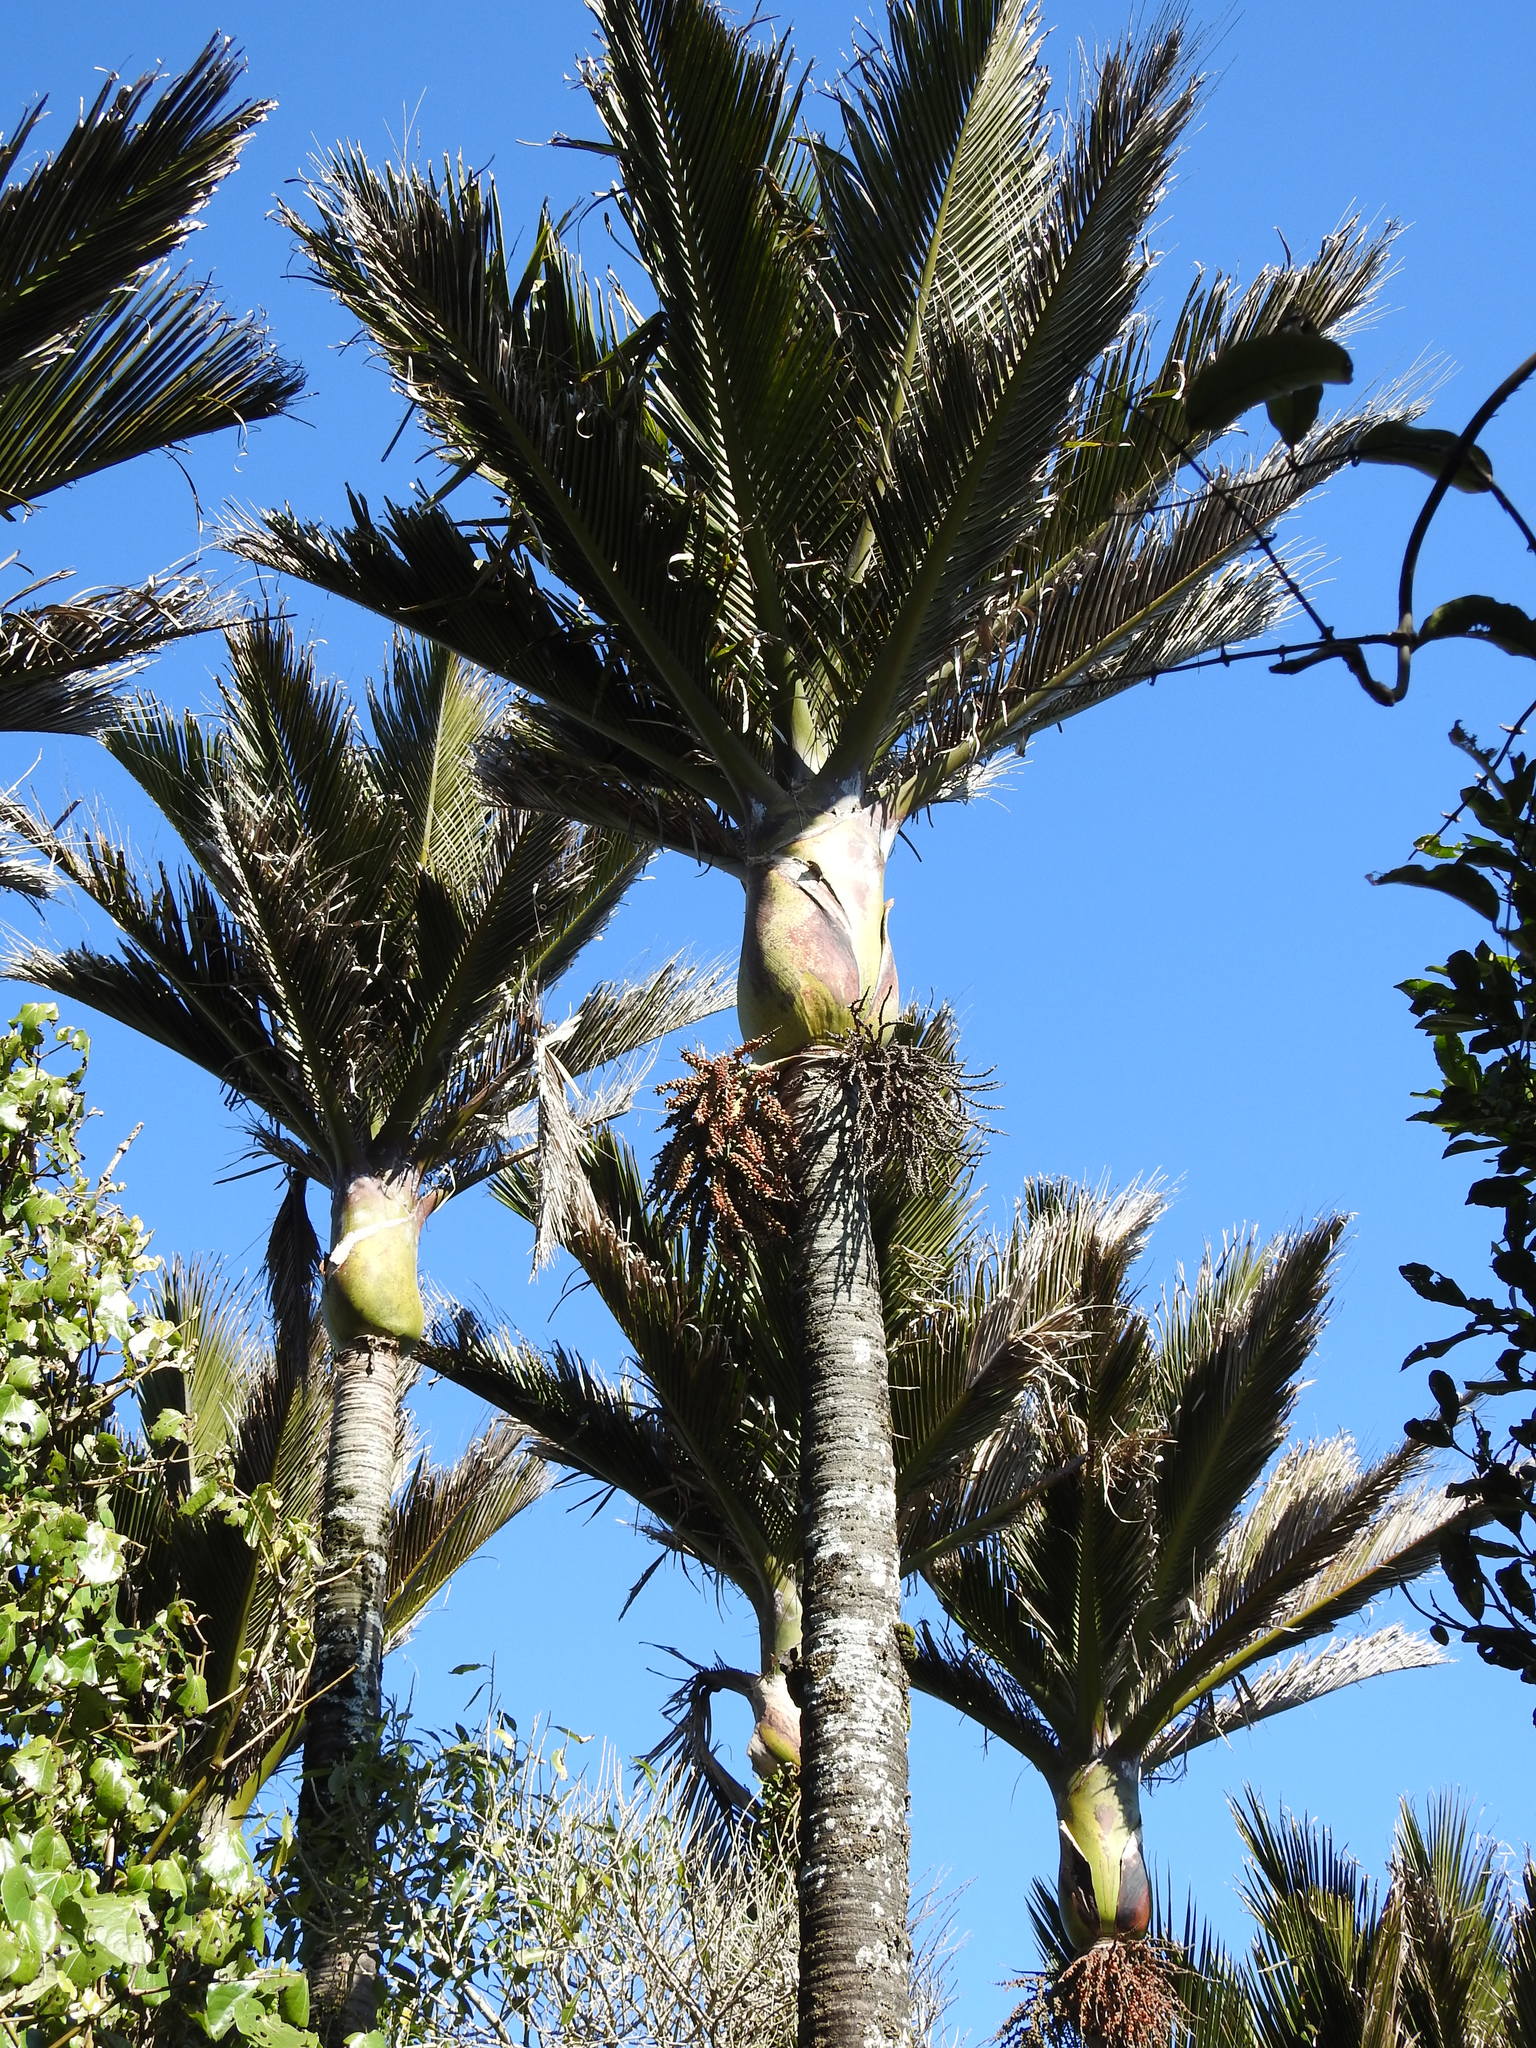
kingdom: Plantae
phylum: Tracheophyta
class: Liliopsida
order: Arecales
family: Arecaceae
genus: Rhopalostylis
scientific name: Rhopalostylis sapida
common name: Feather-duster palm
